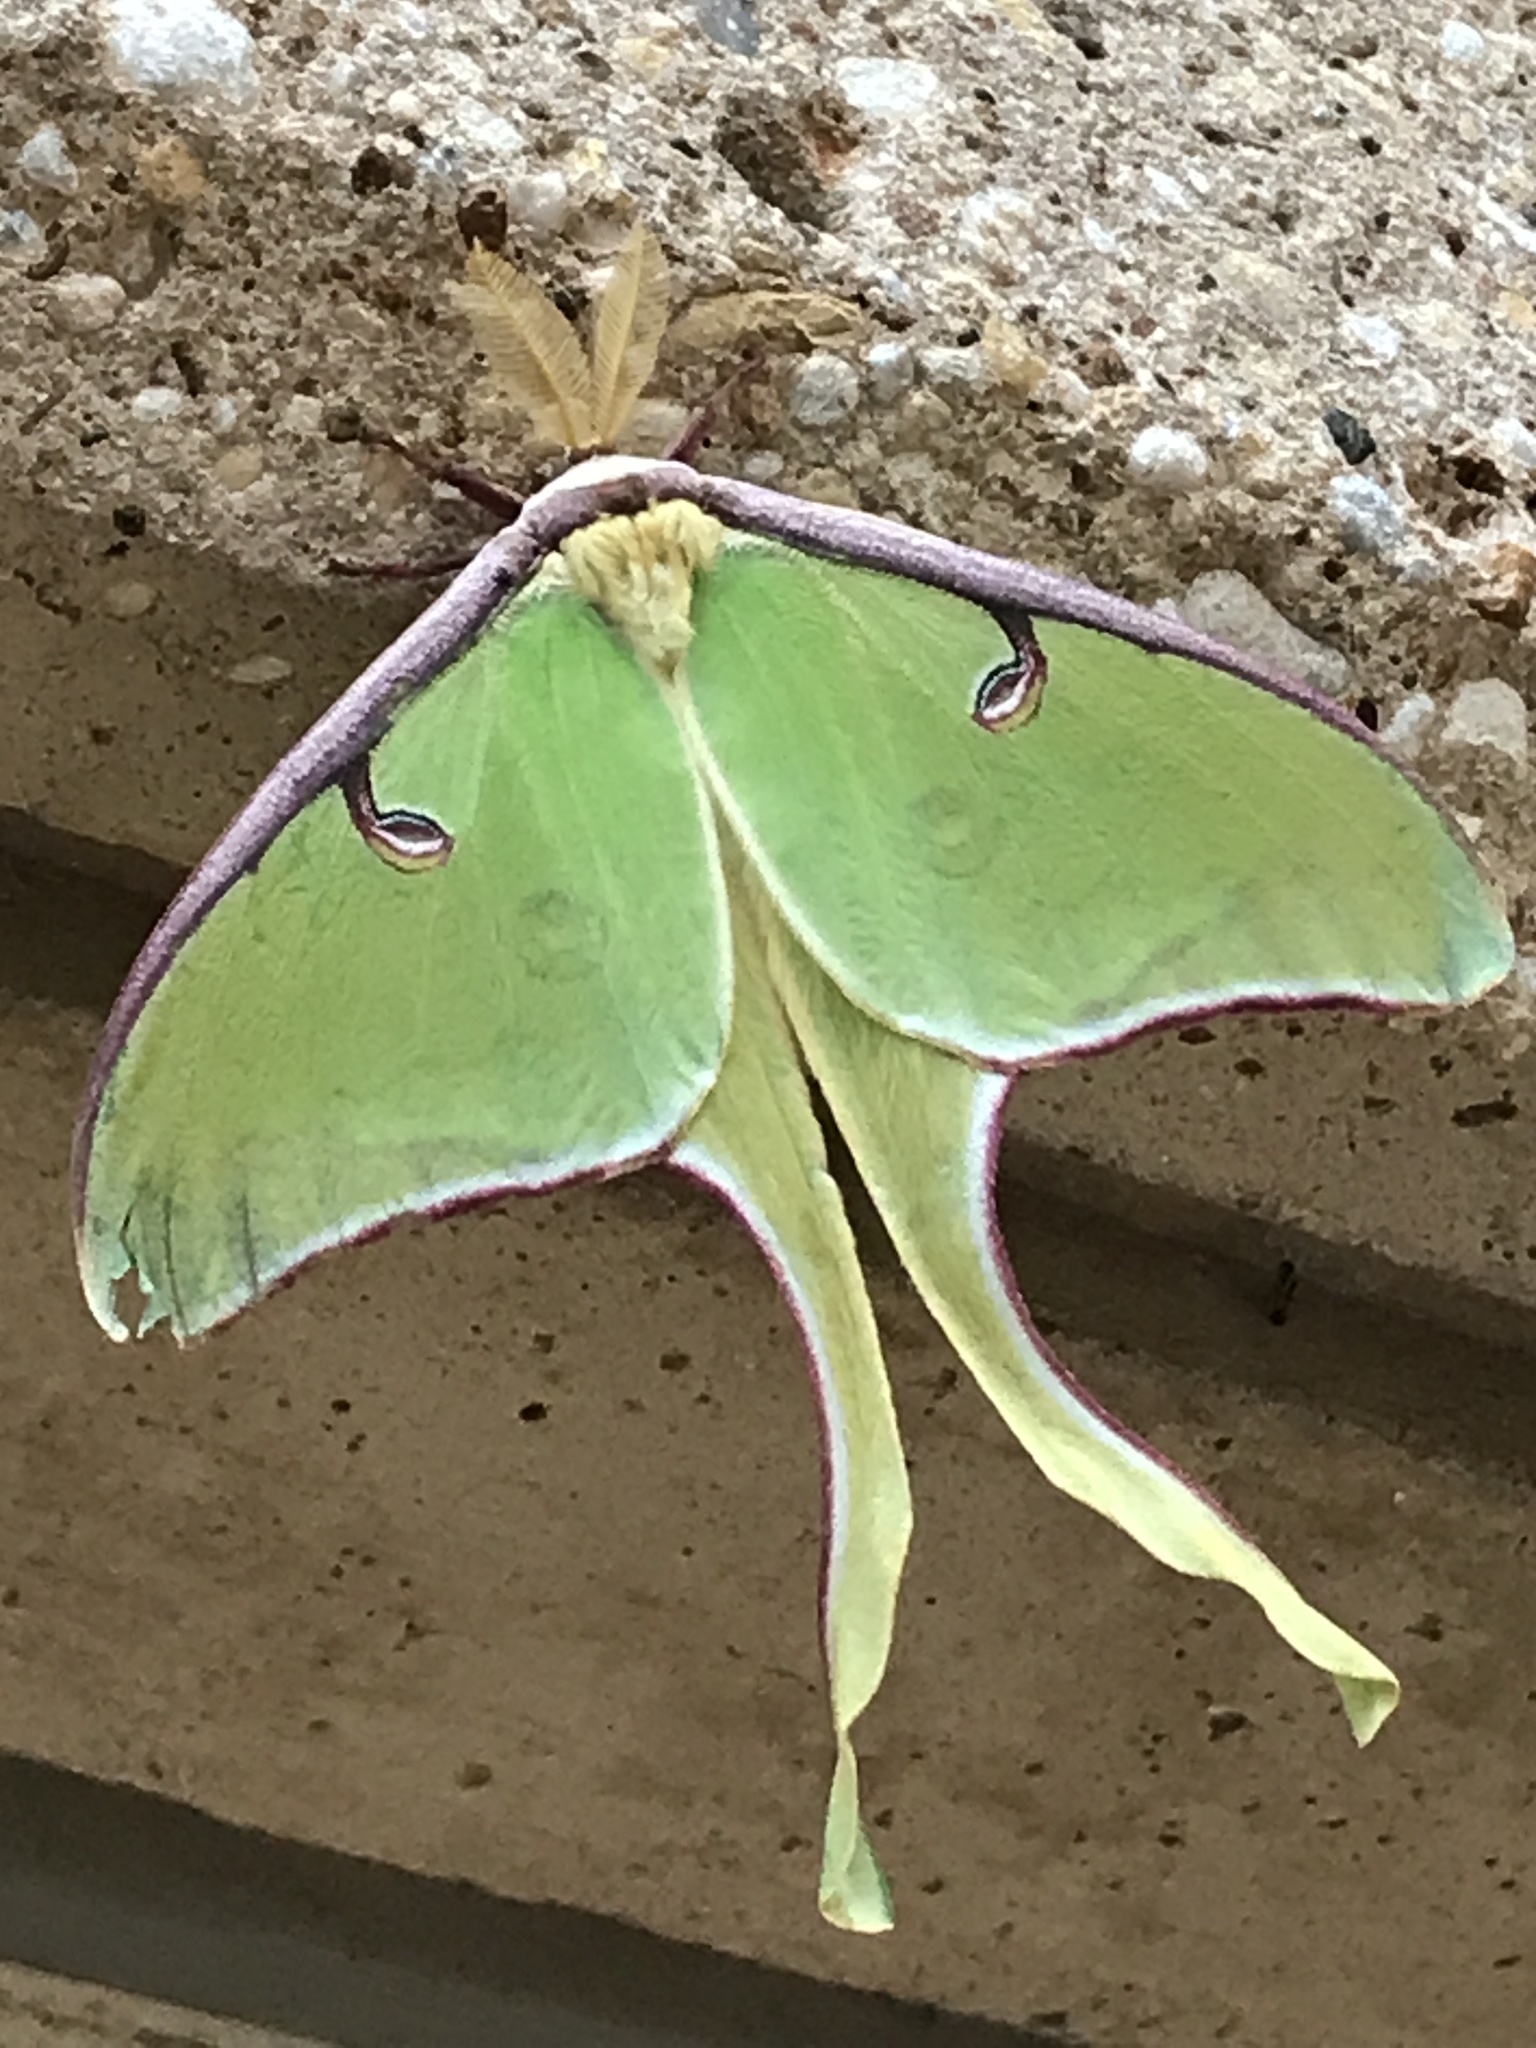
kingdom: Animalia
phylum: Arthropoda
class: Insecta
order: Lepidoptera
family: Saturniidae
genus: Actias
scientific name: Actias luna
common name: Luna moth
